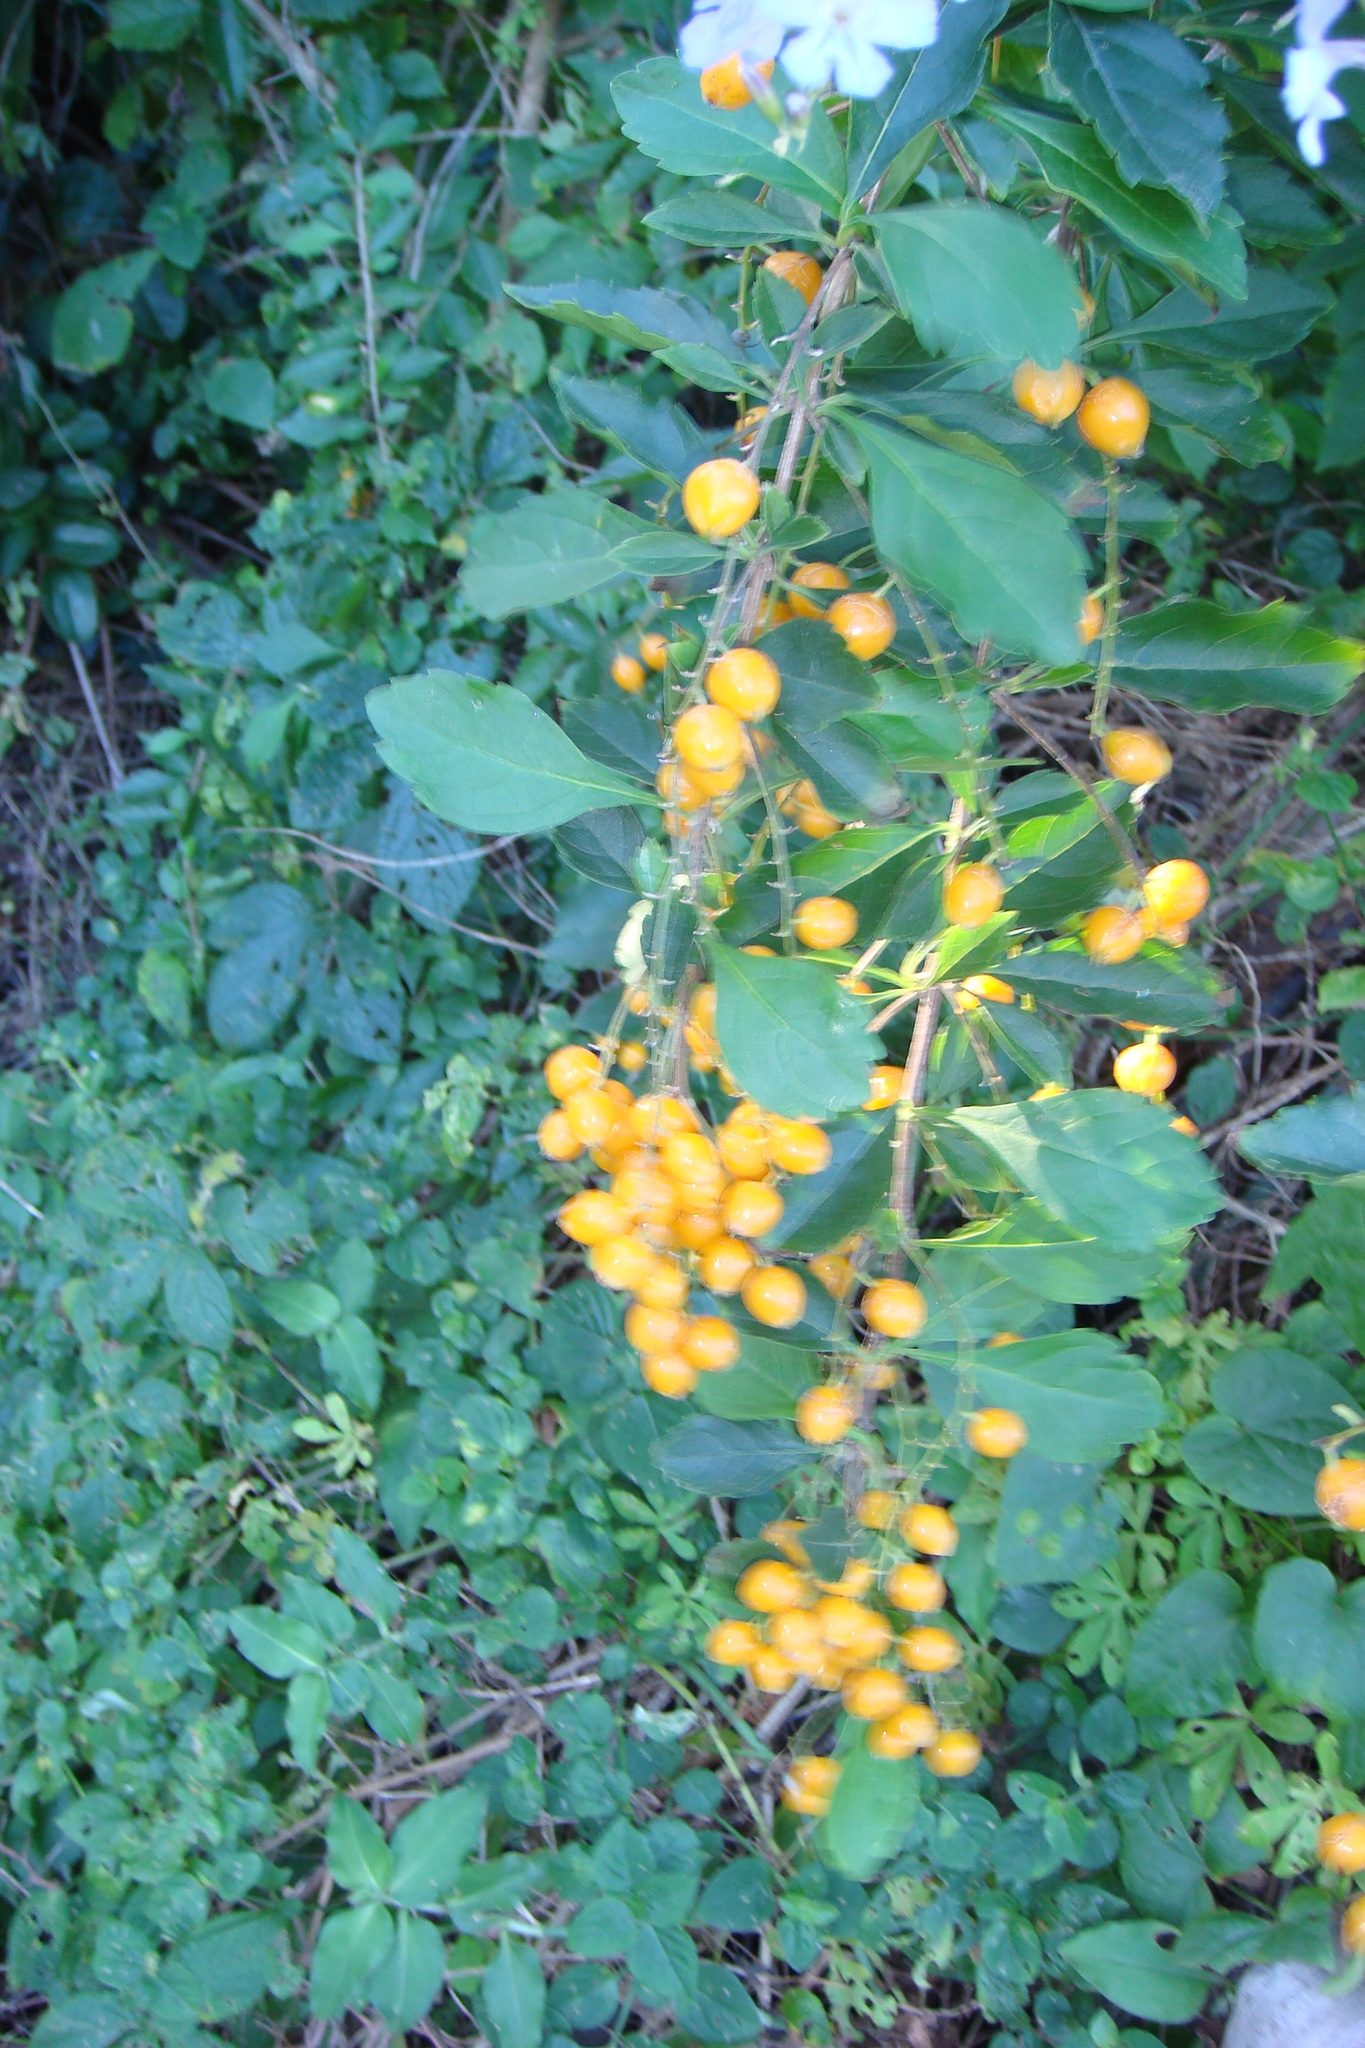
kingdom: Plantae
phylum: Tracheophyta
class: Magnoliopsida
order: Lamiales
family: Verbenaceae
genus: Duranta
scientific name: Duranta erecta
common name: Golden dewdrops
